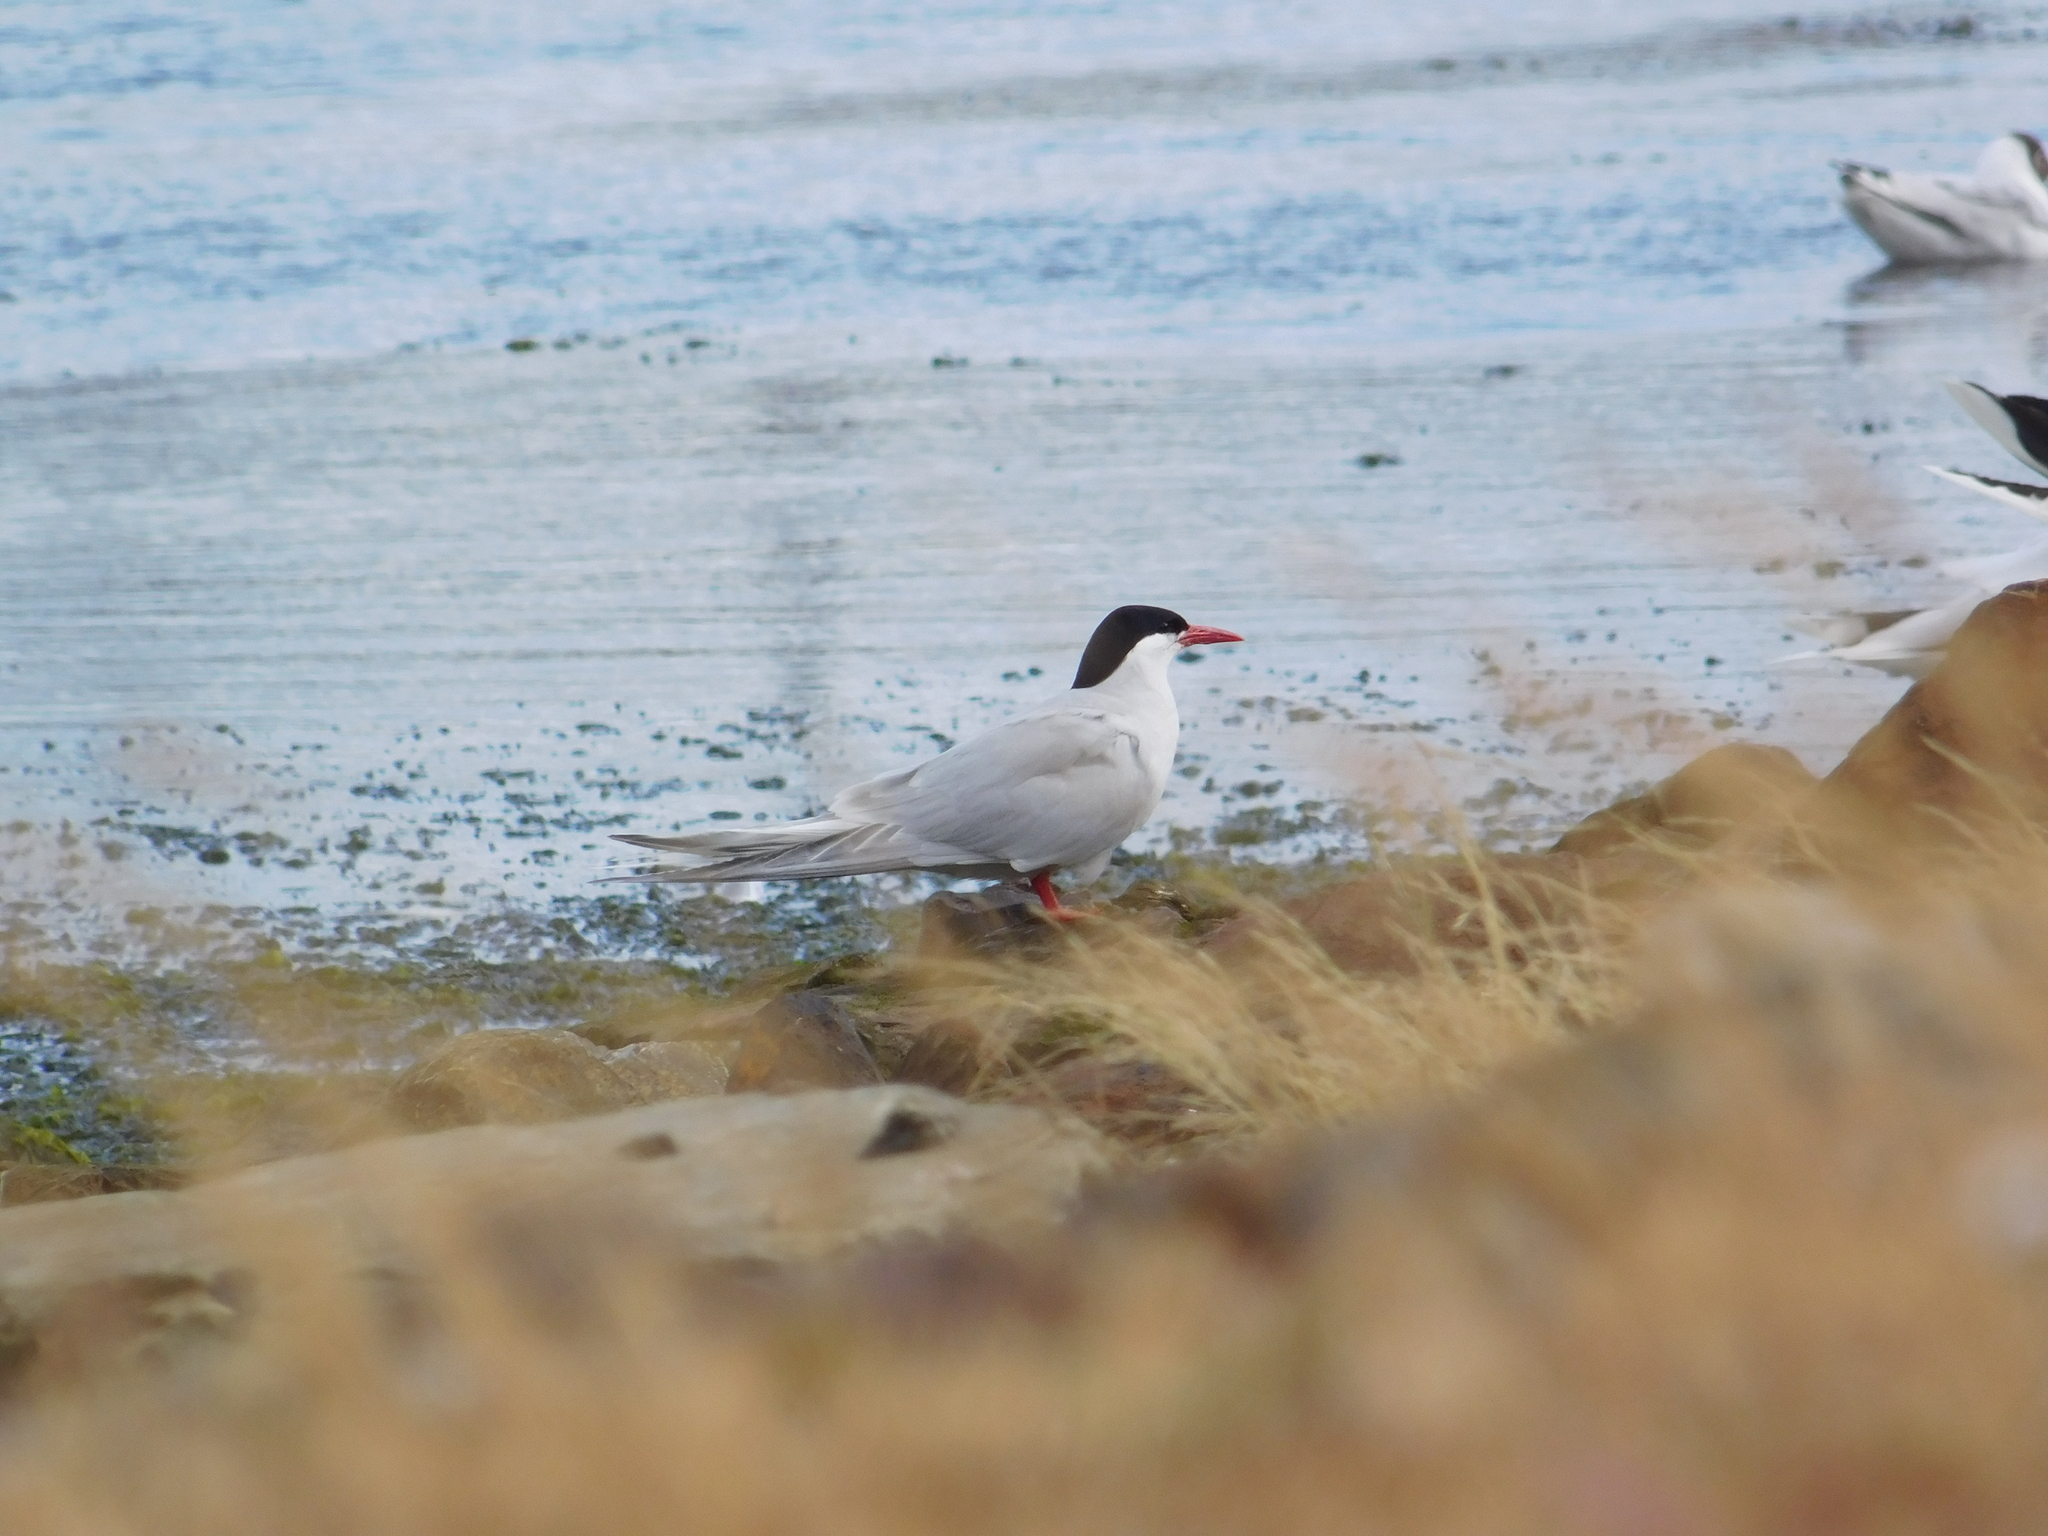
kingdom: Animalia
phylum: Chordata
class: Aves
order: Charadriiformes
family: Laridae
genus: Sterna
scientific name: Sterna hirundinacea
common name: South american tern
